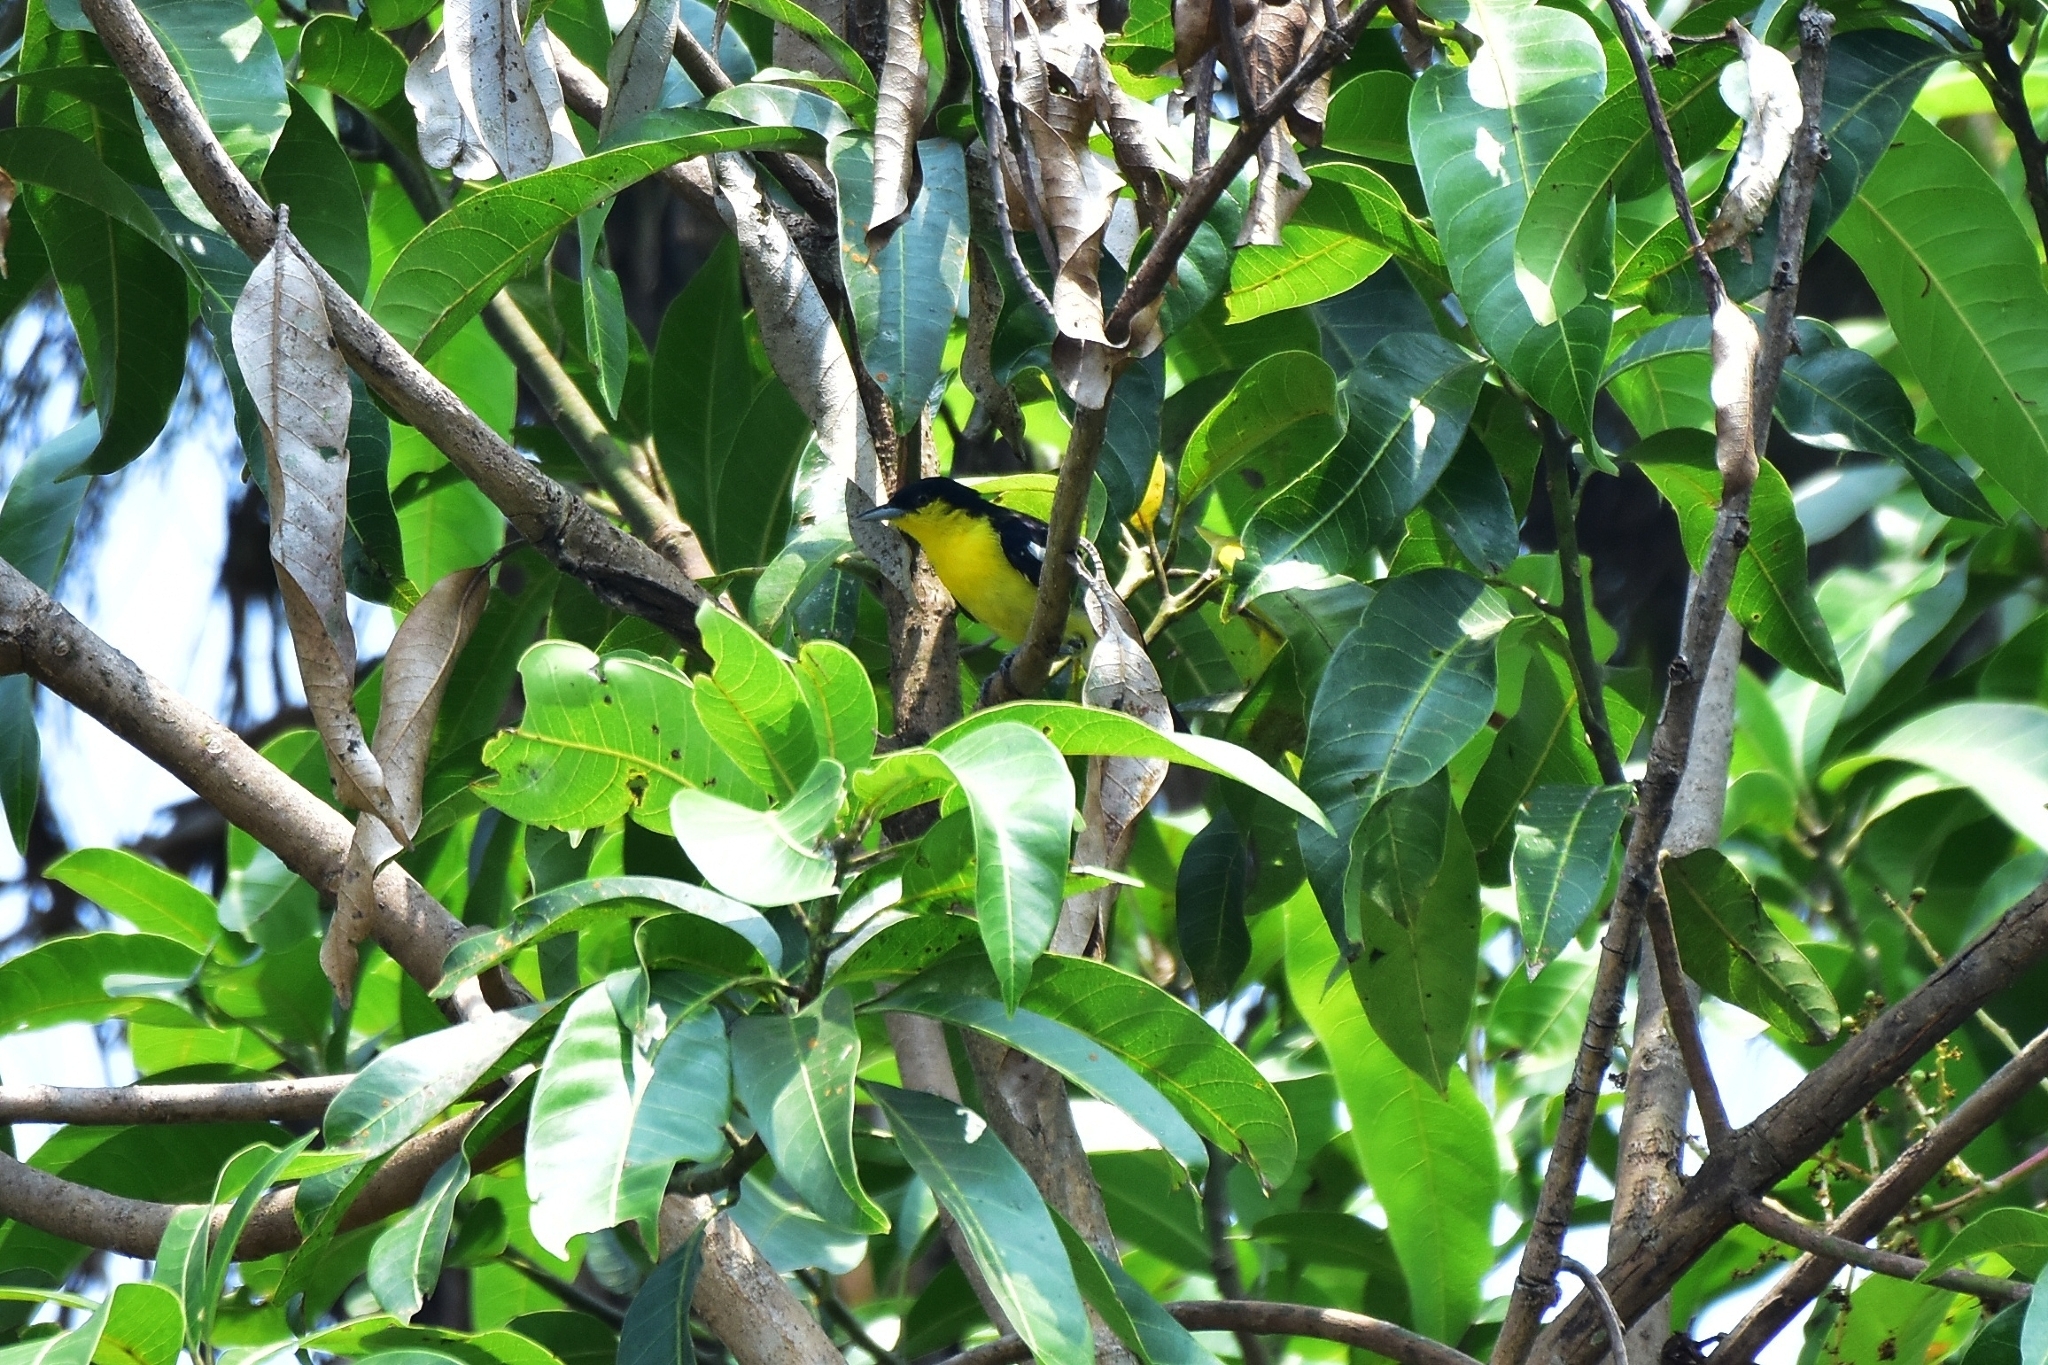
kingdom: Animalia
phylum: Chordata
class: Aves
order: Passeriformes
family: Aegithinidae
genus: Aegithina
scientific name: Aegithina tiphia
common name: Common iora
